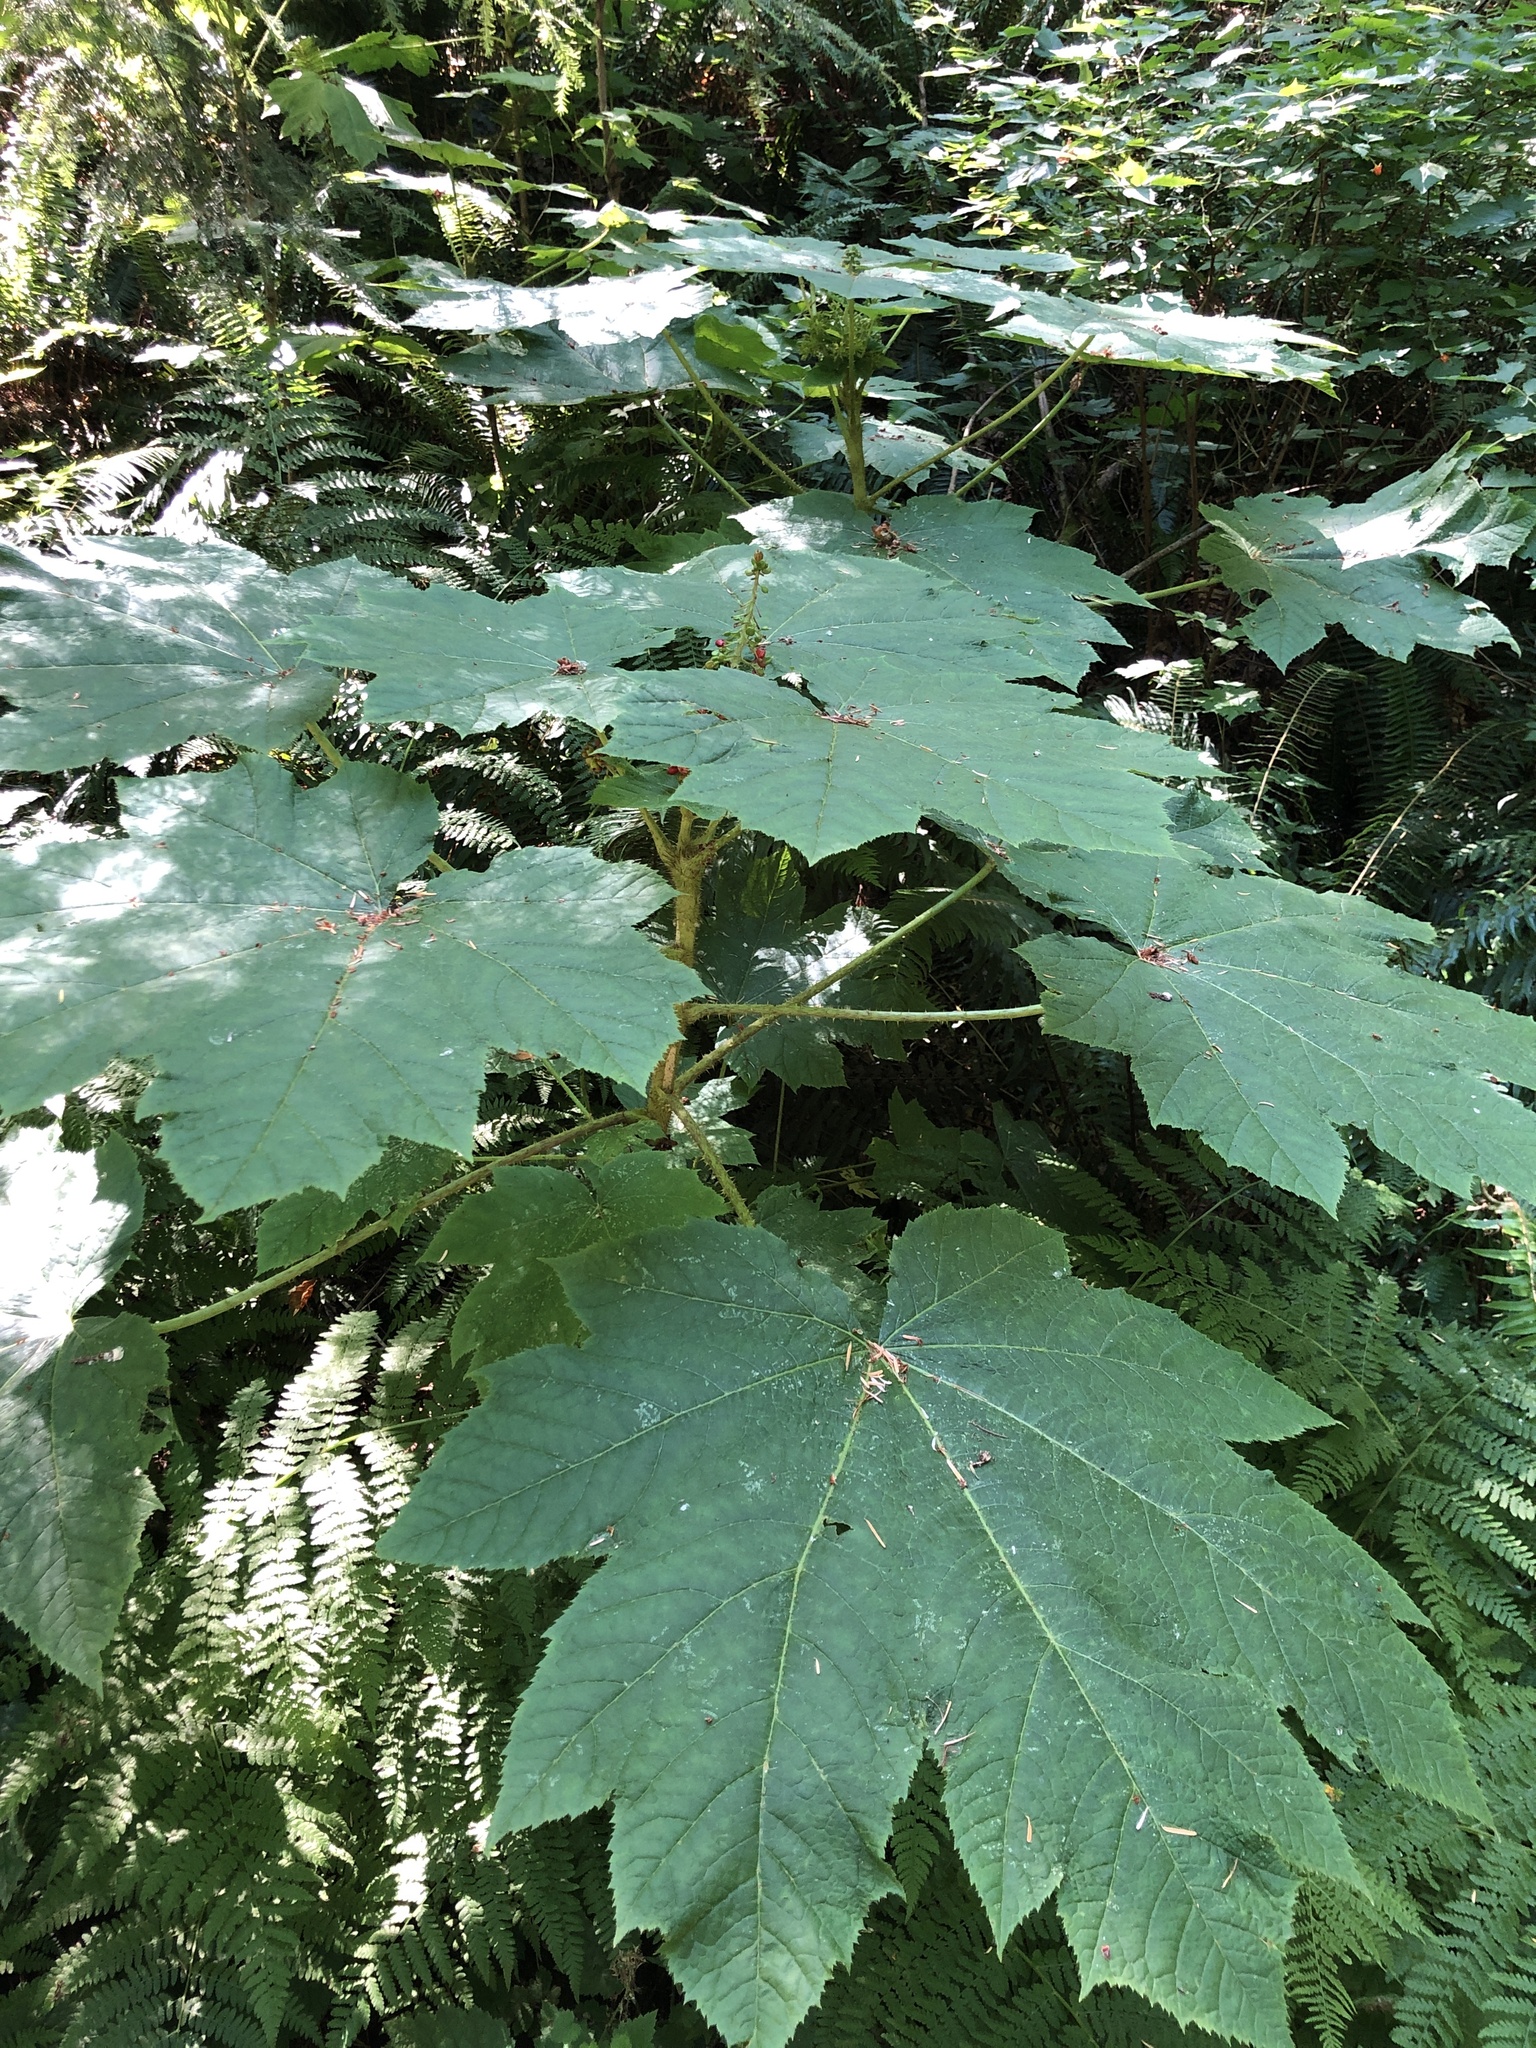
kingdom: Plantae
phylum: Tracheophyta
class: Magnoliopsida
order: Apiales
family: Araliaceae
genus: Oplopanax
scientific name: Oplopanax horridus
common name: Devil's walking-stick
